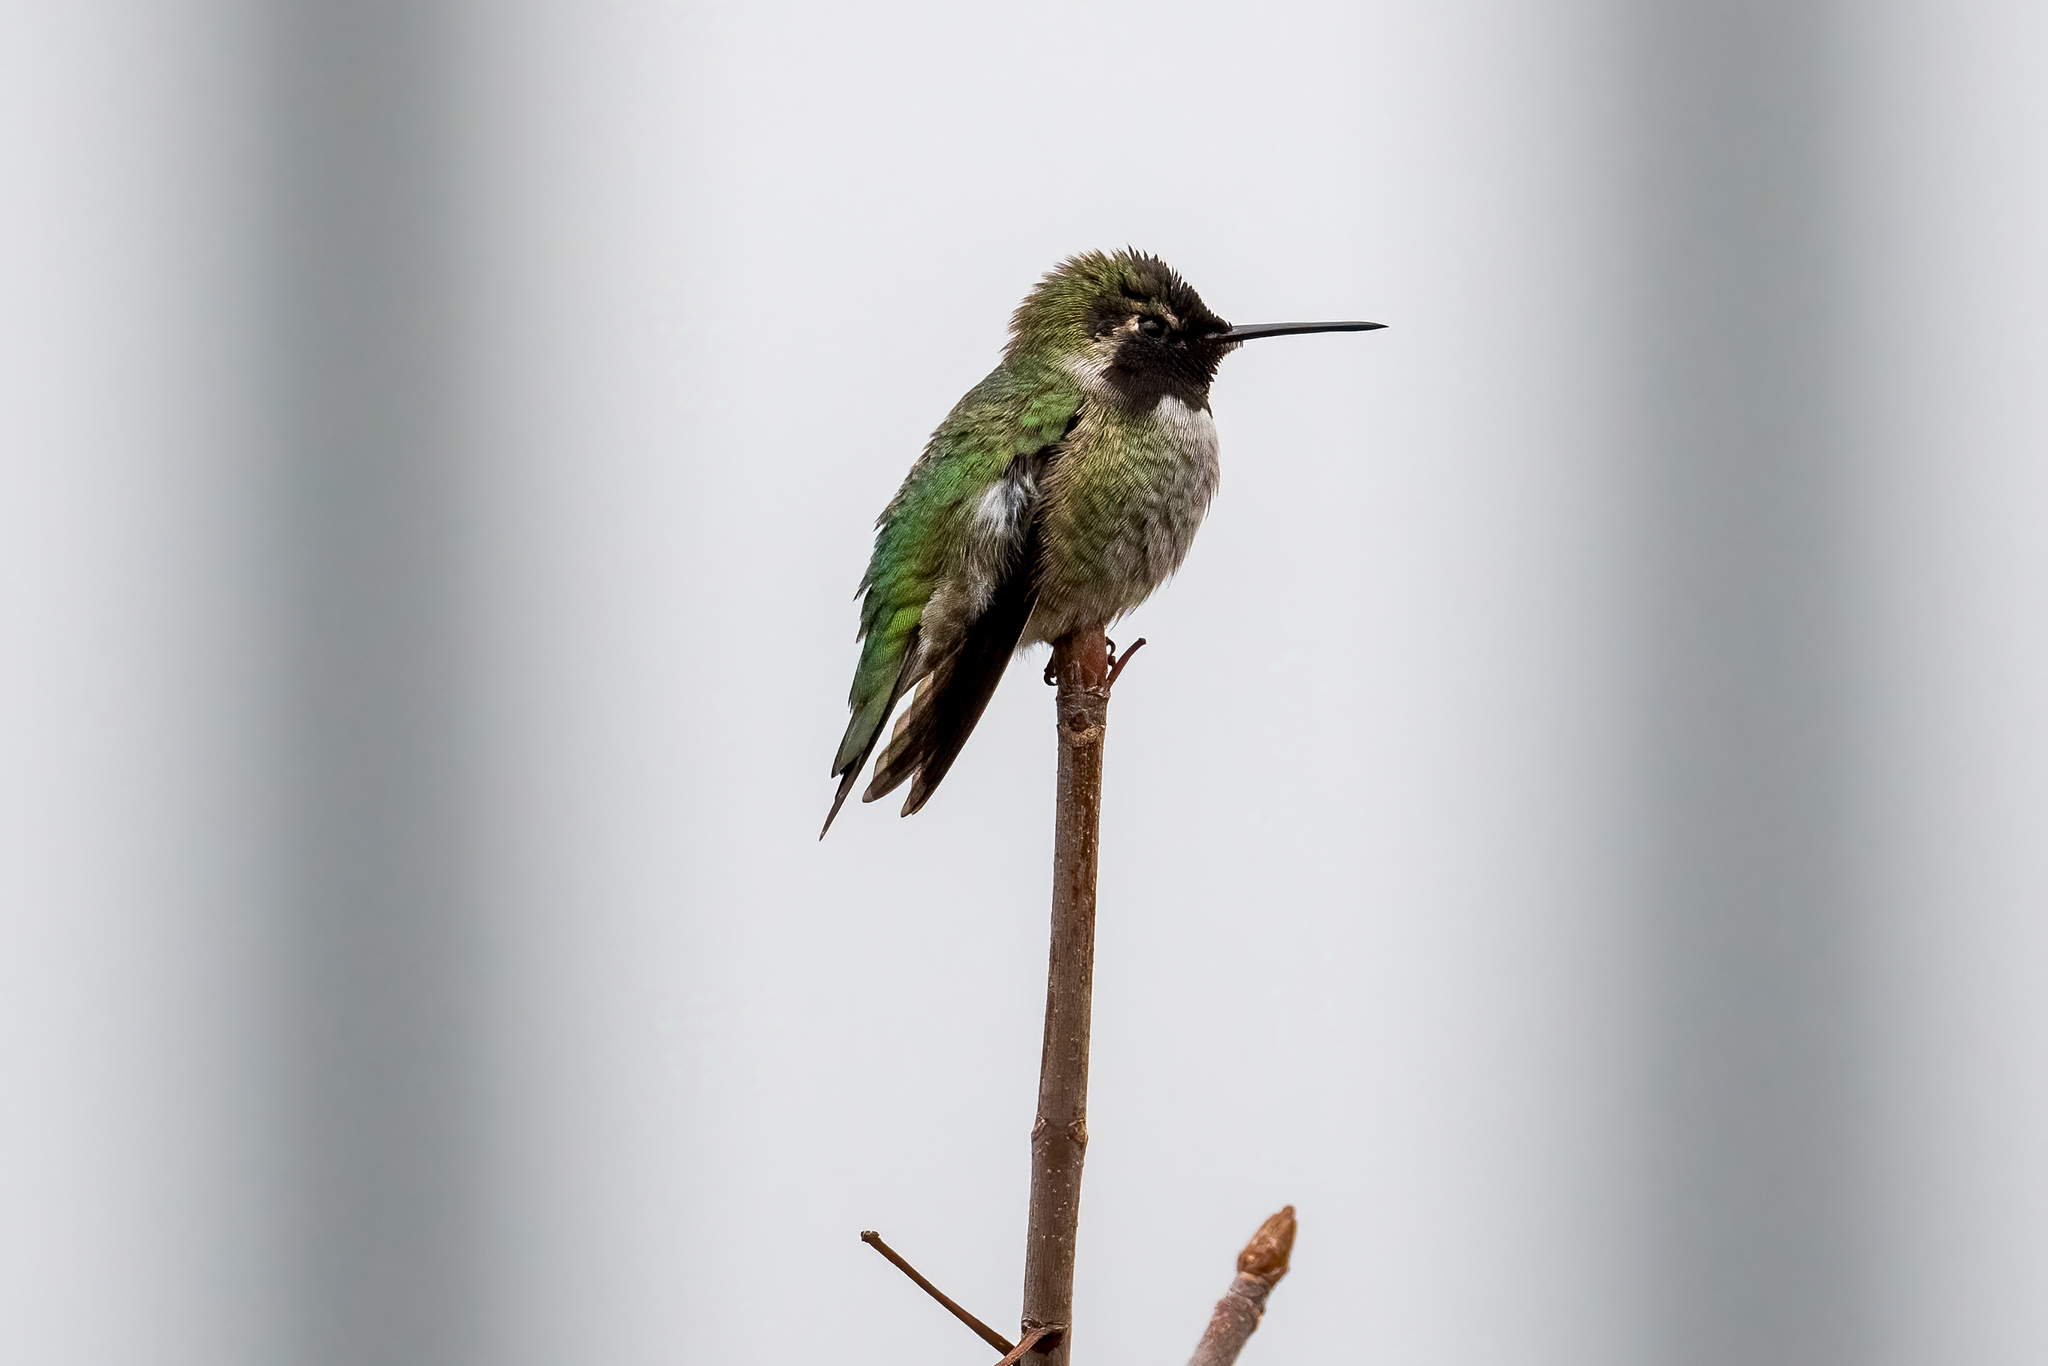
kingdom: Animalia
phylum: Chordata
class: Aves
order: Apodiformes
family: Trochilidae
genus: Calypte
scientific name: Calypte anna
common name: Anna's hummingbird
